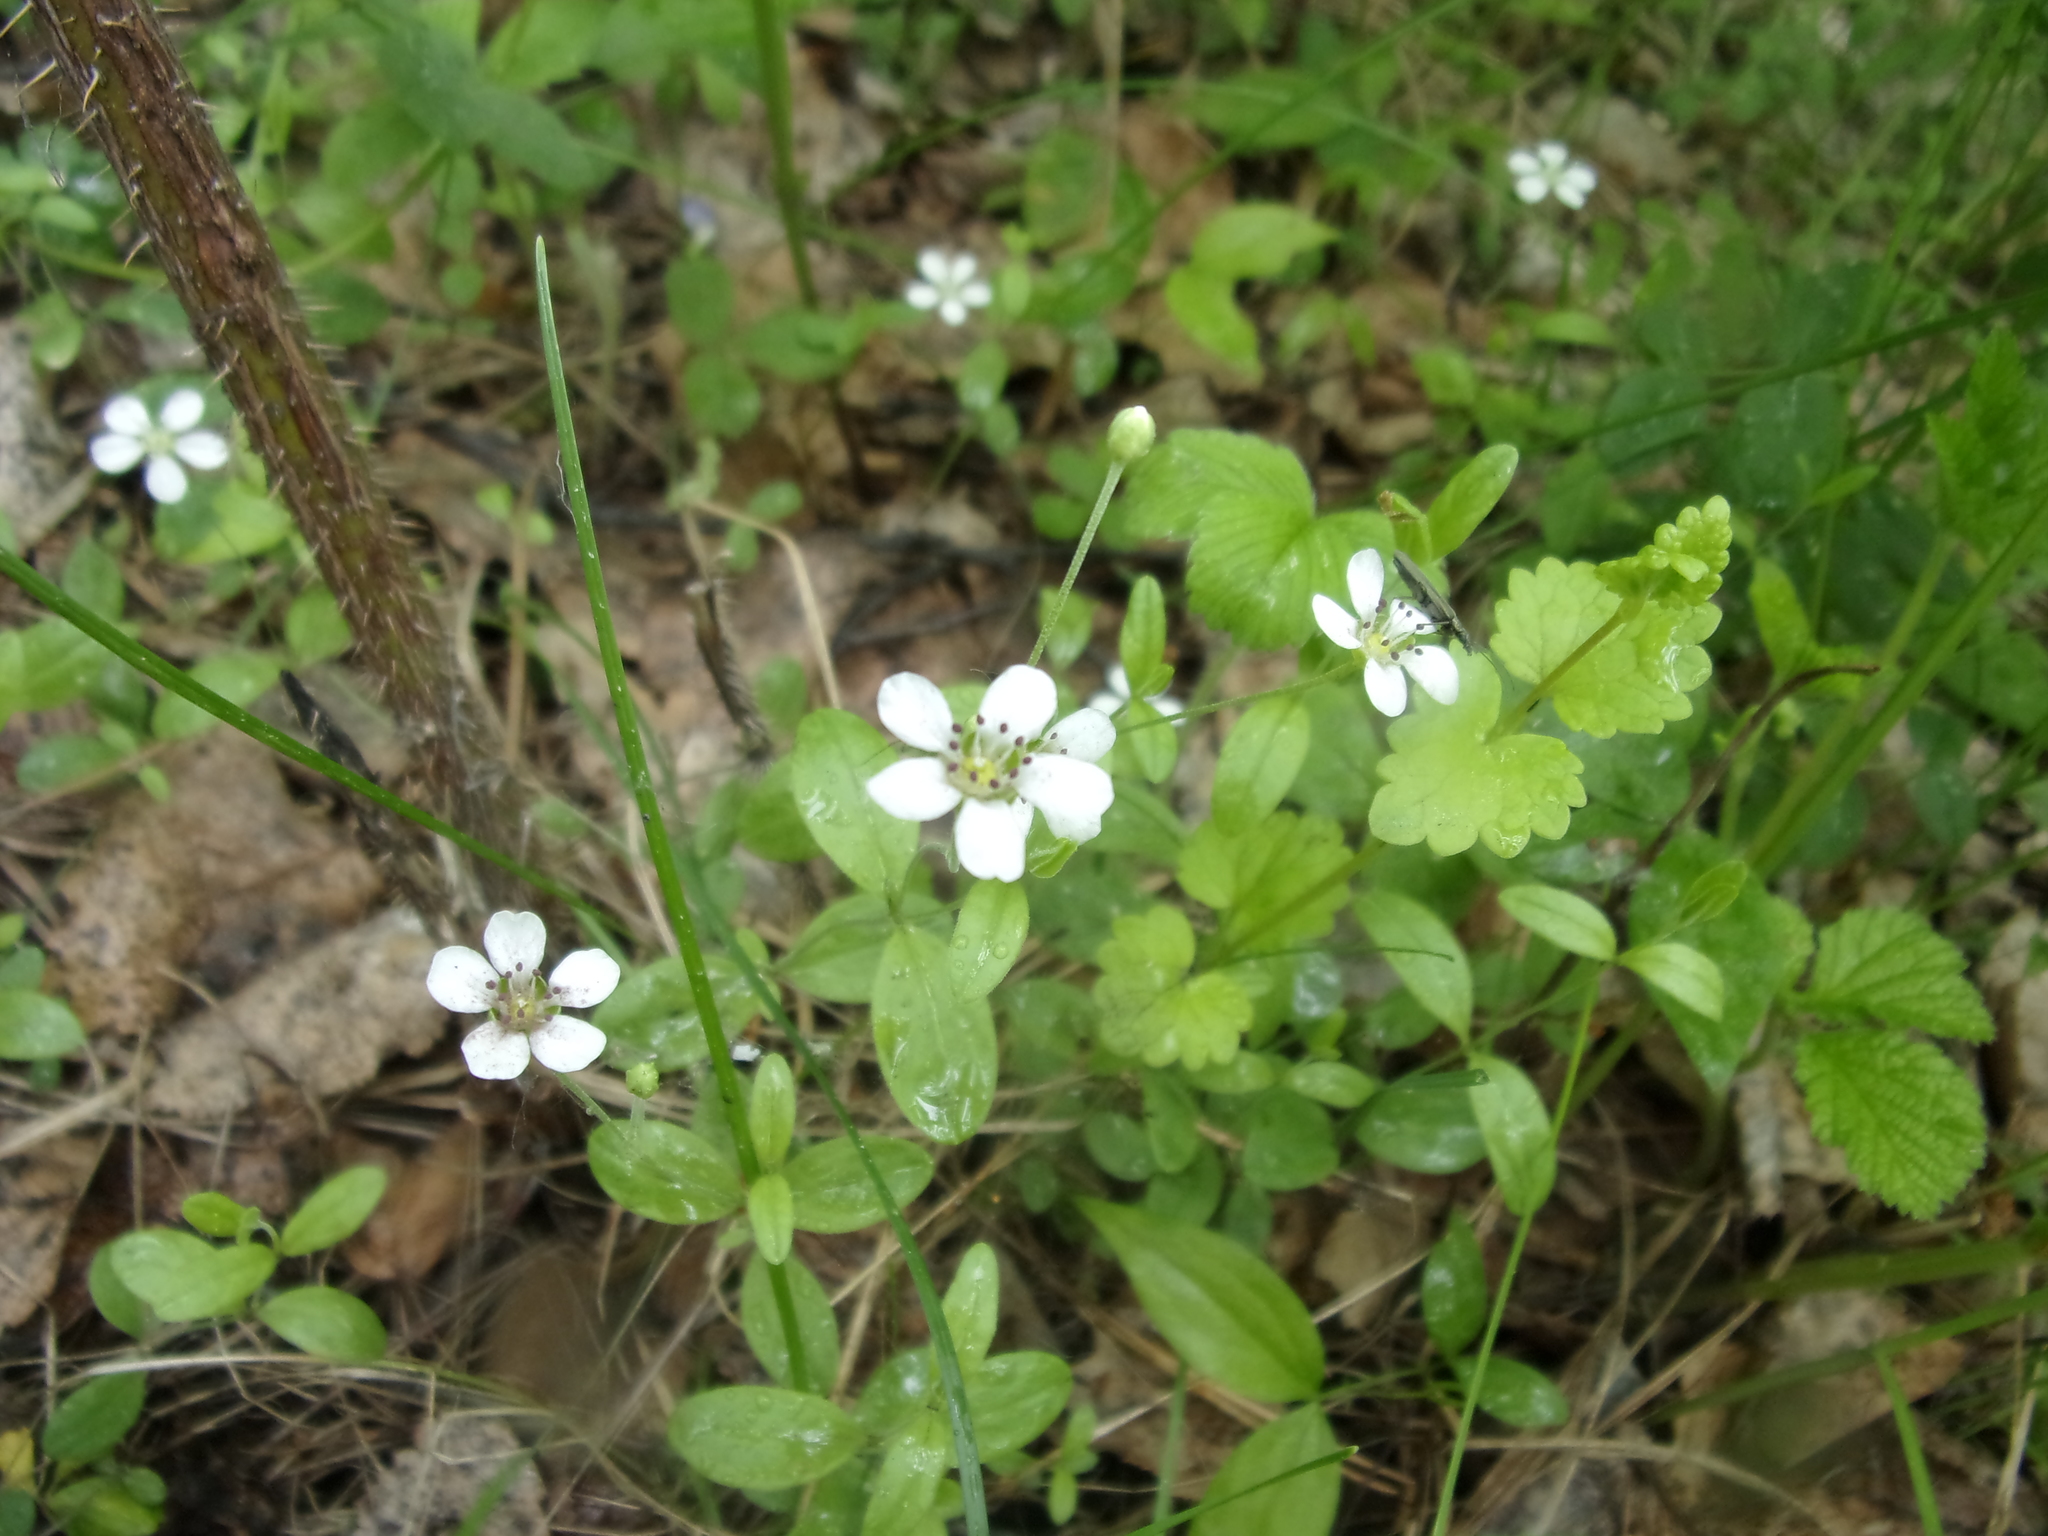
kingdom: Plantae
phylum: Tracheophyta
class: Magnoliopsida
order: Caryophyllales
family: Caryophyllaceae
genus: Moehringia
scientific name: Moehringia lateriflora
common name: Blunt-leaved sandwort
